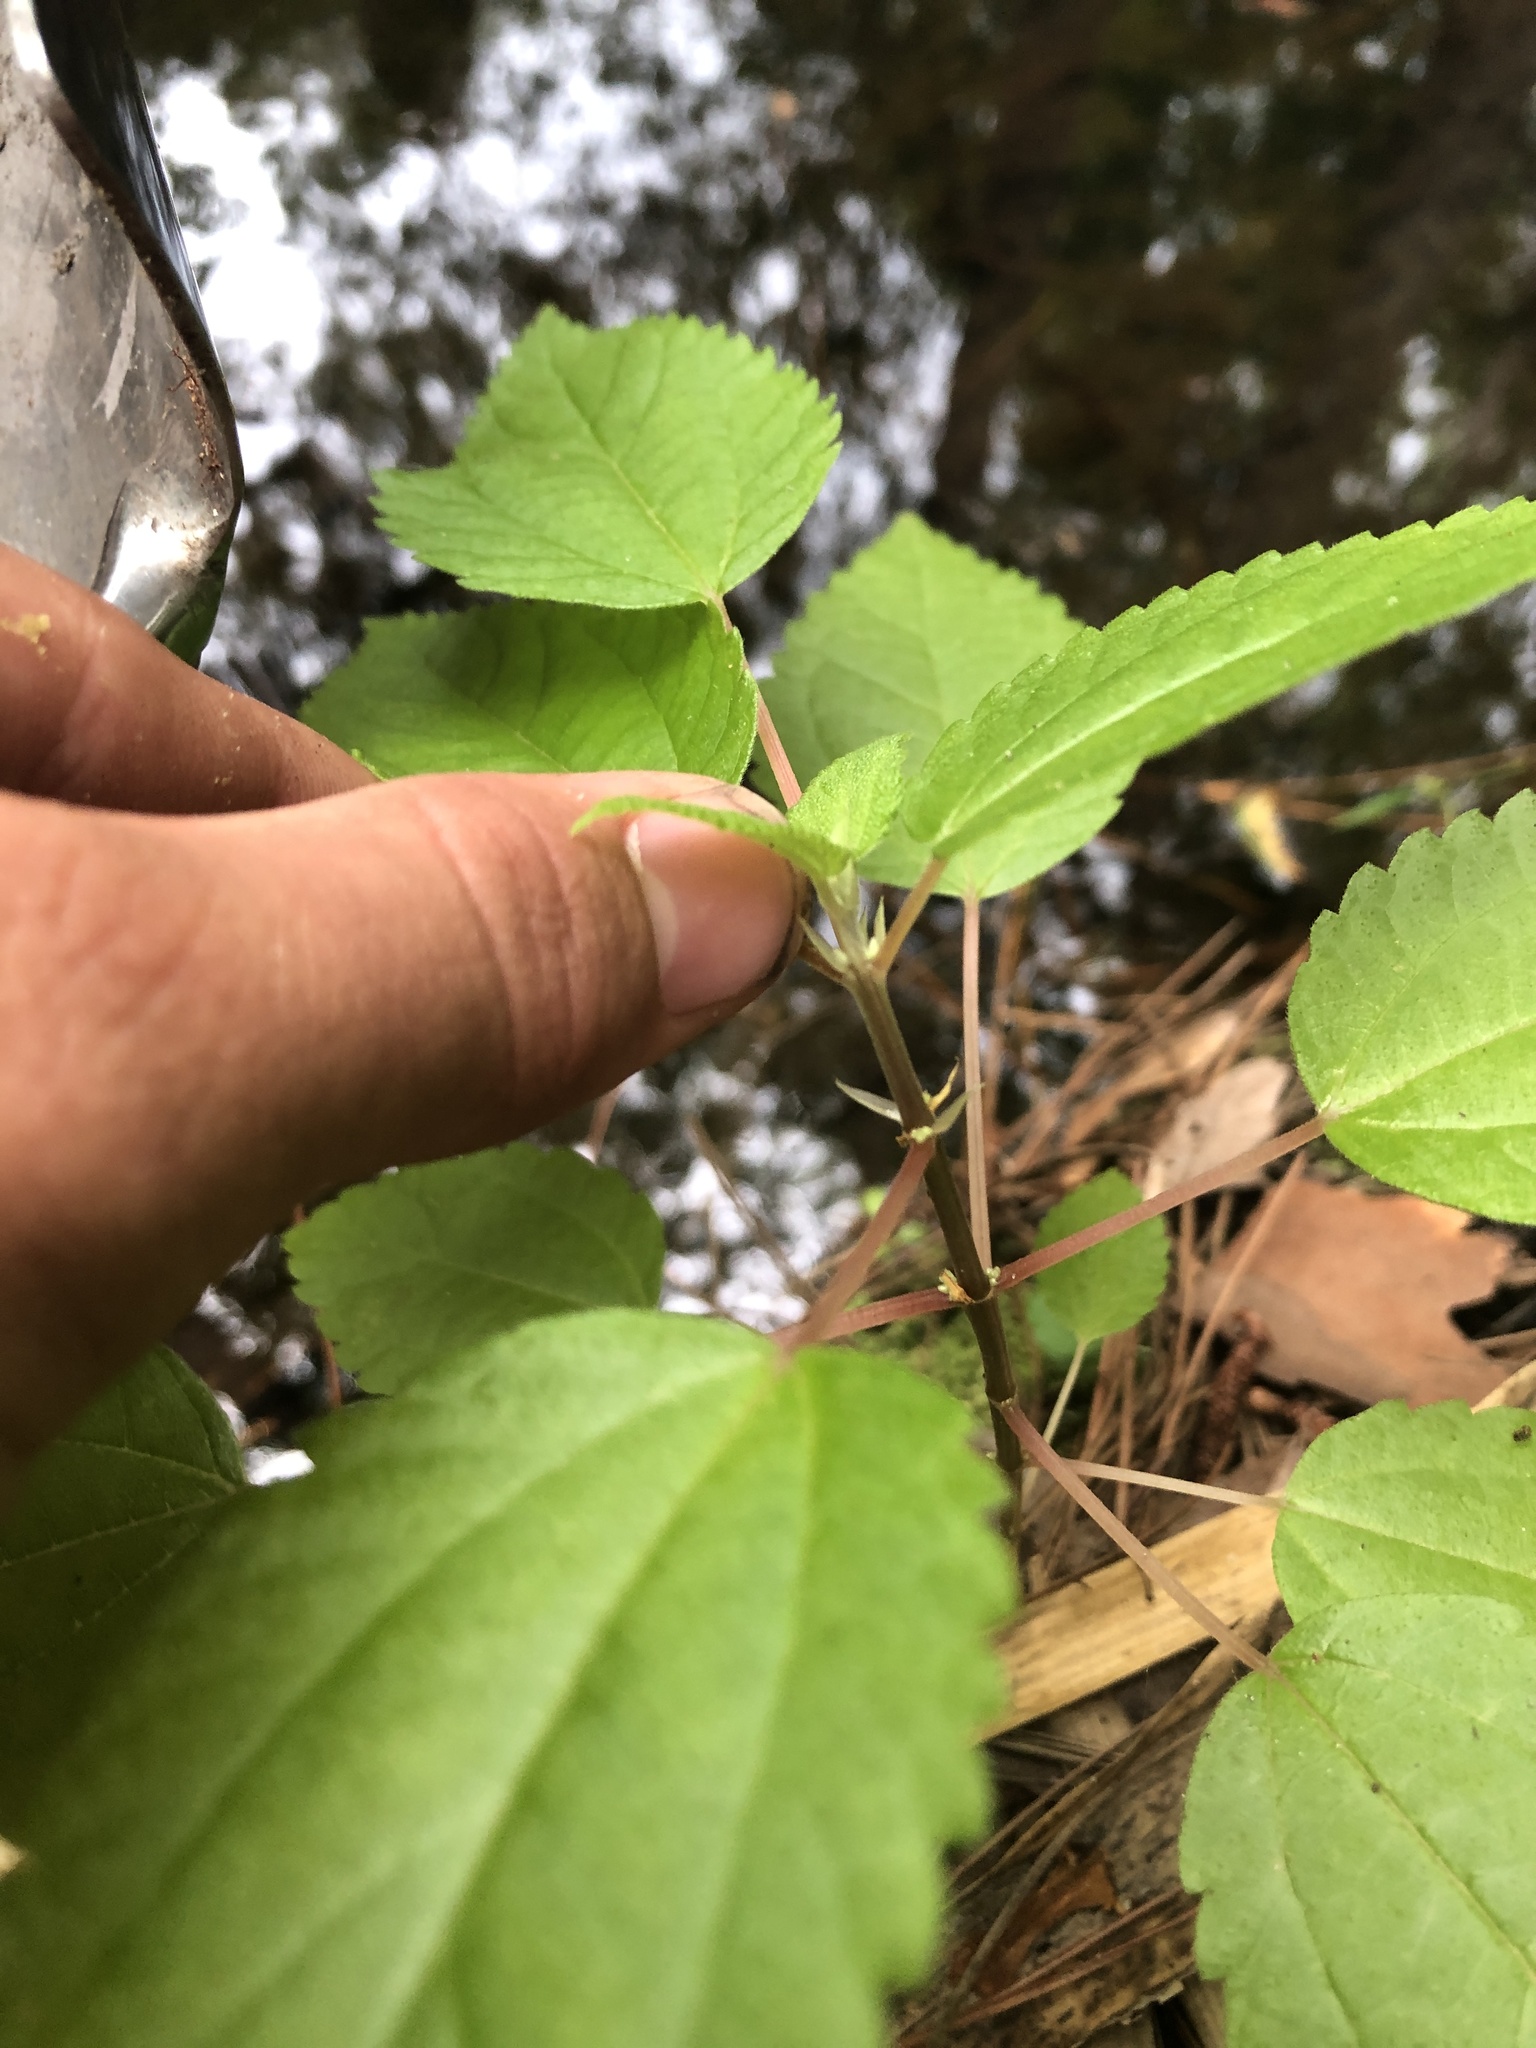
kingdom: Plantae
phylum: Tracheophyta
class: Magnoliopsida
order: Rosales
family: Urticaceae
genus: Boehmeria
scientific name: Boehmeria cylindrica
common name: Bog-hemp
